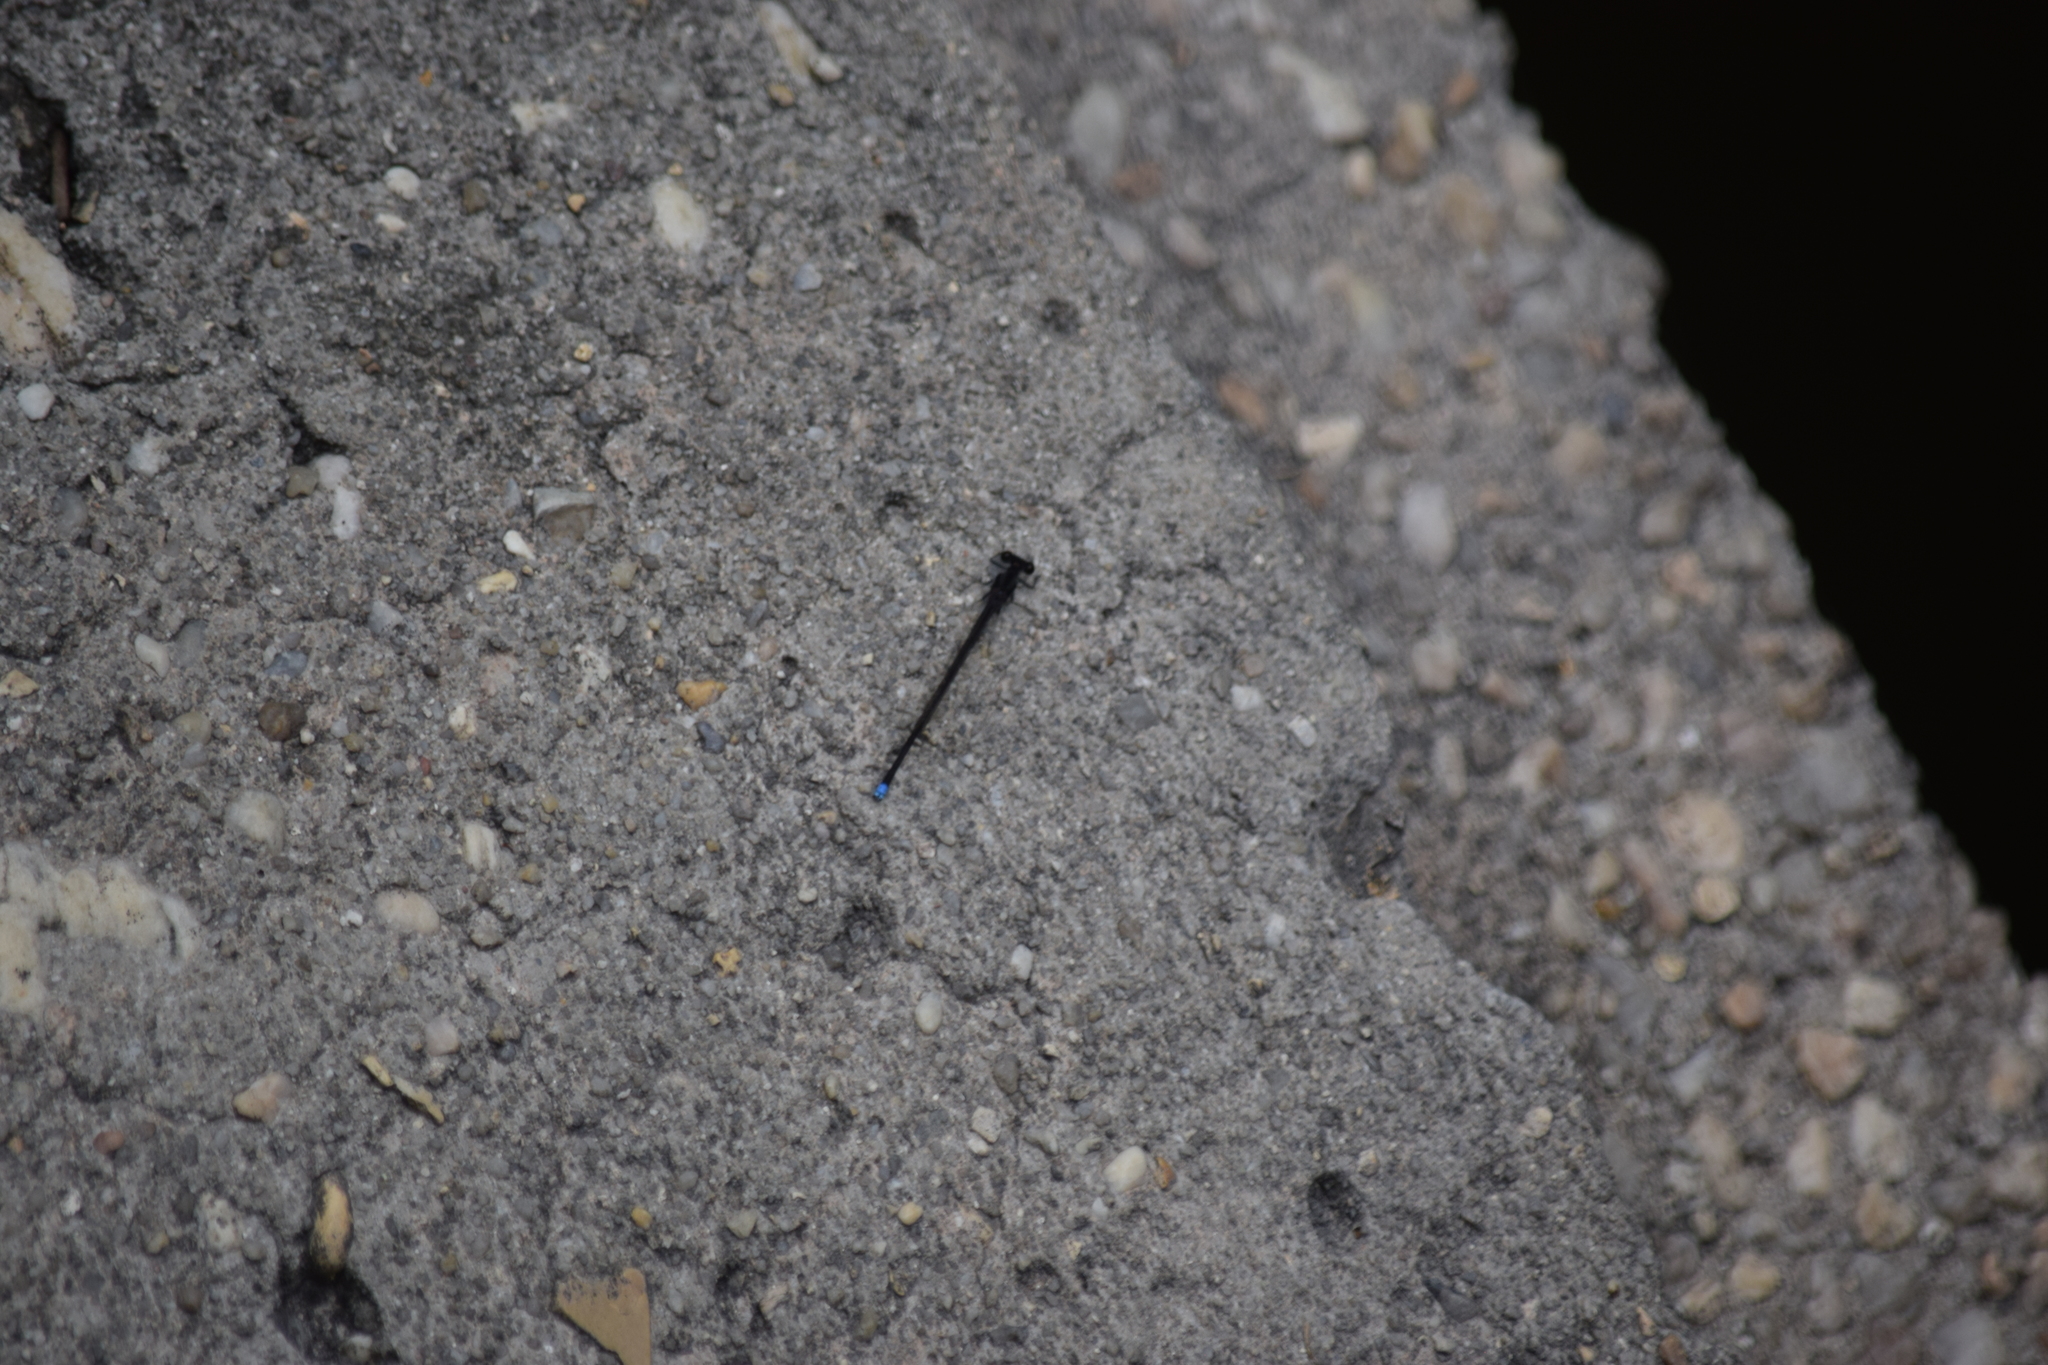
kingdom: Animalia
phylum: Arthropoda
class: Insecta
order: Odonata
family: Coenagrionidae
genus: Argia
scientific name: Argia tibialis
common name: Blue-tipped dancer
